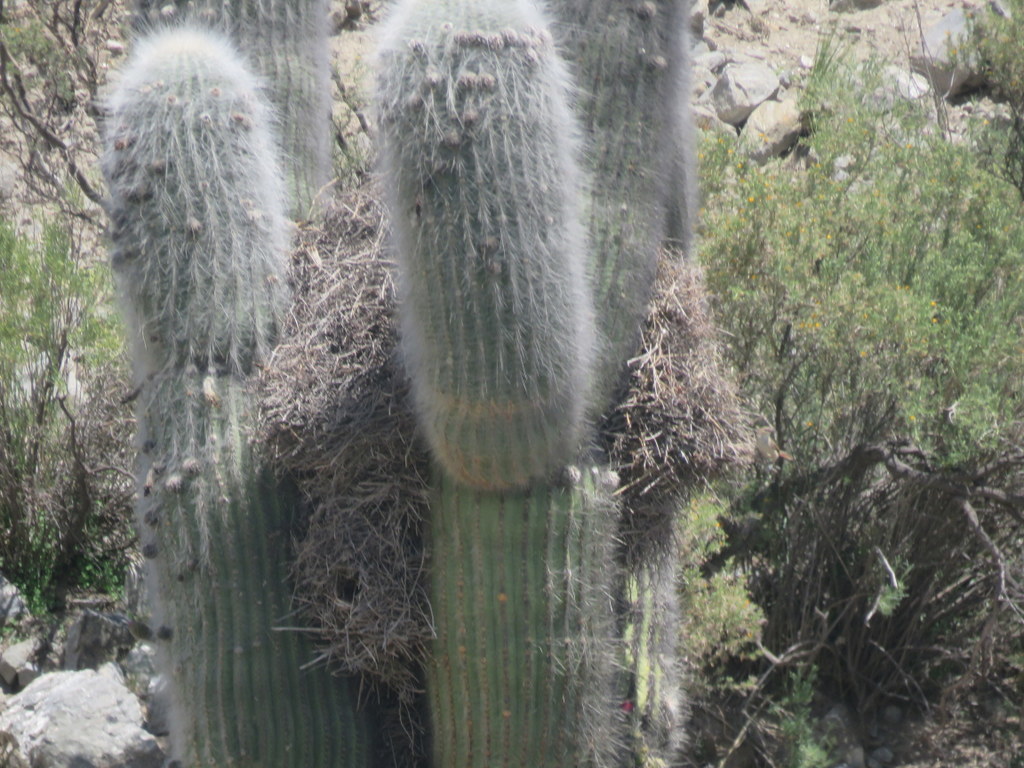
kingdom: Animalia
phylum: Chordata
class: Aves
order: Passeriformes
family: Furnariidae
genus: Phacellodomus
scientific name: Phacellodomus striaticeps
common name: Streak-fronted thornbird
